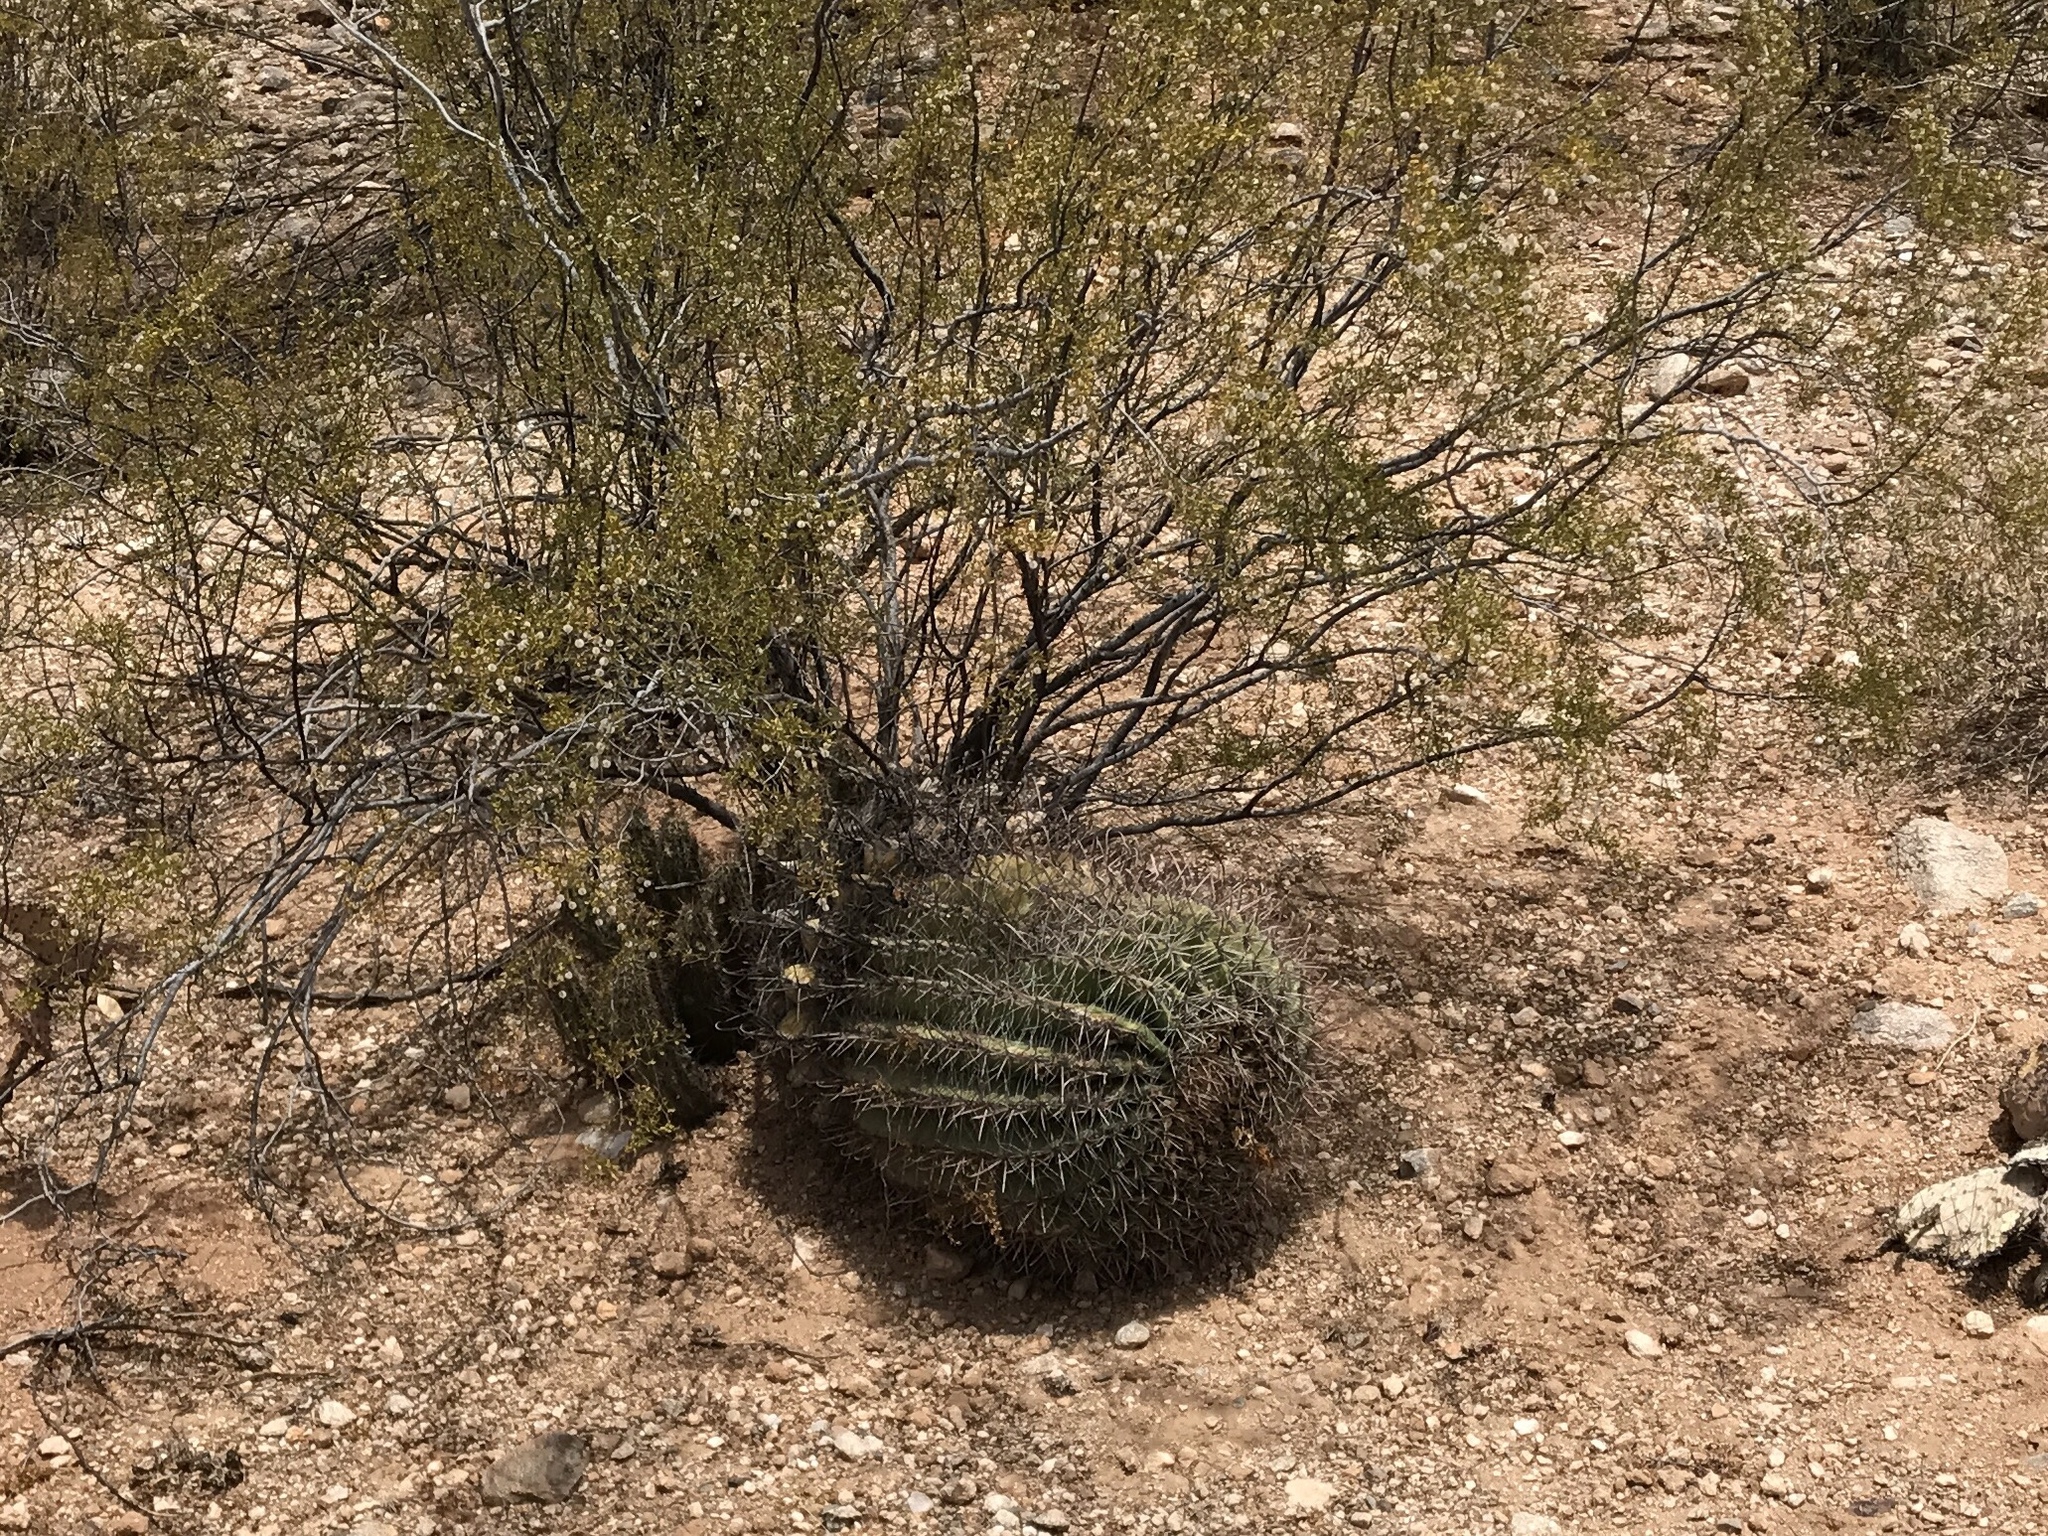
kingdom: Plantae
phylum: Tracheophyta
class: Magnoliopsida
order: Caryophyllales
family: Cactaceae
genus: Ferocactus
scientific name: Ferocactus wislizeni
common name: Candy barrel cactus
